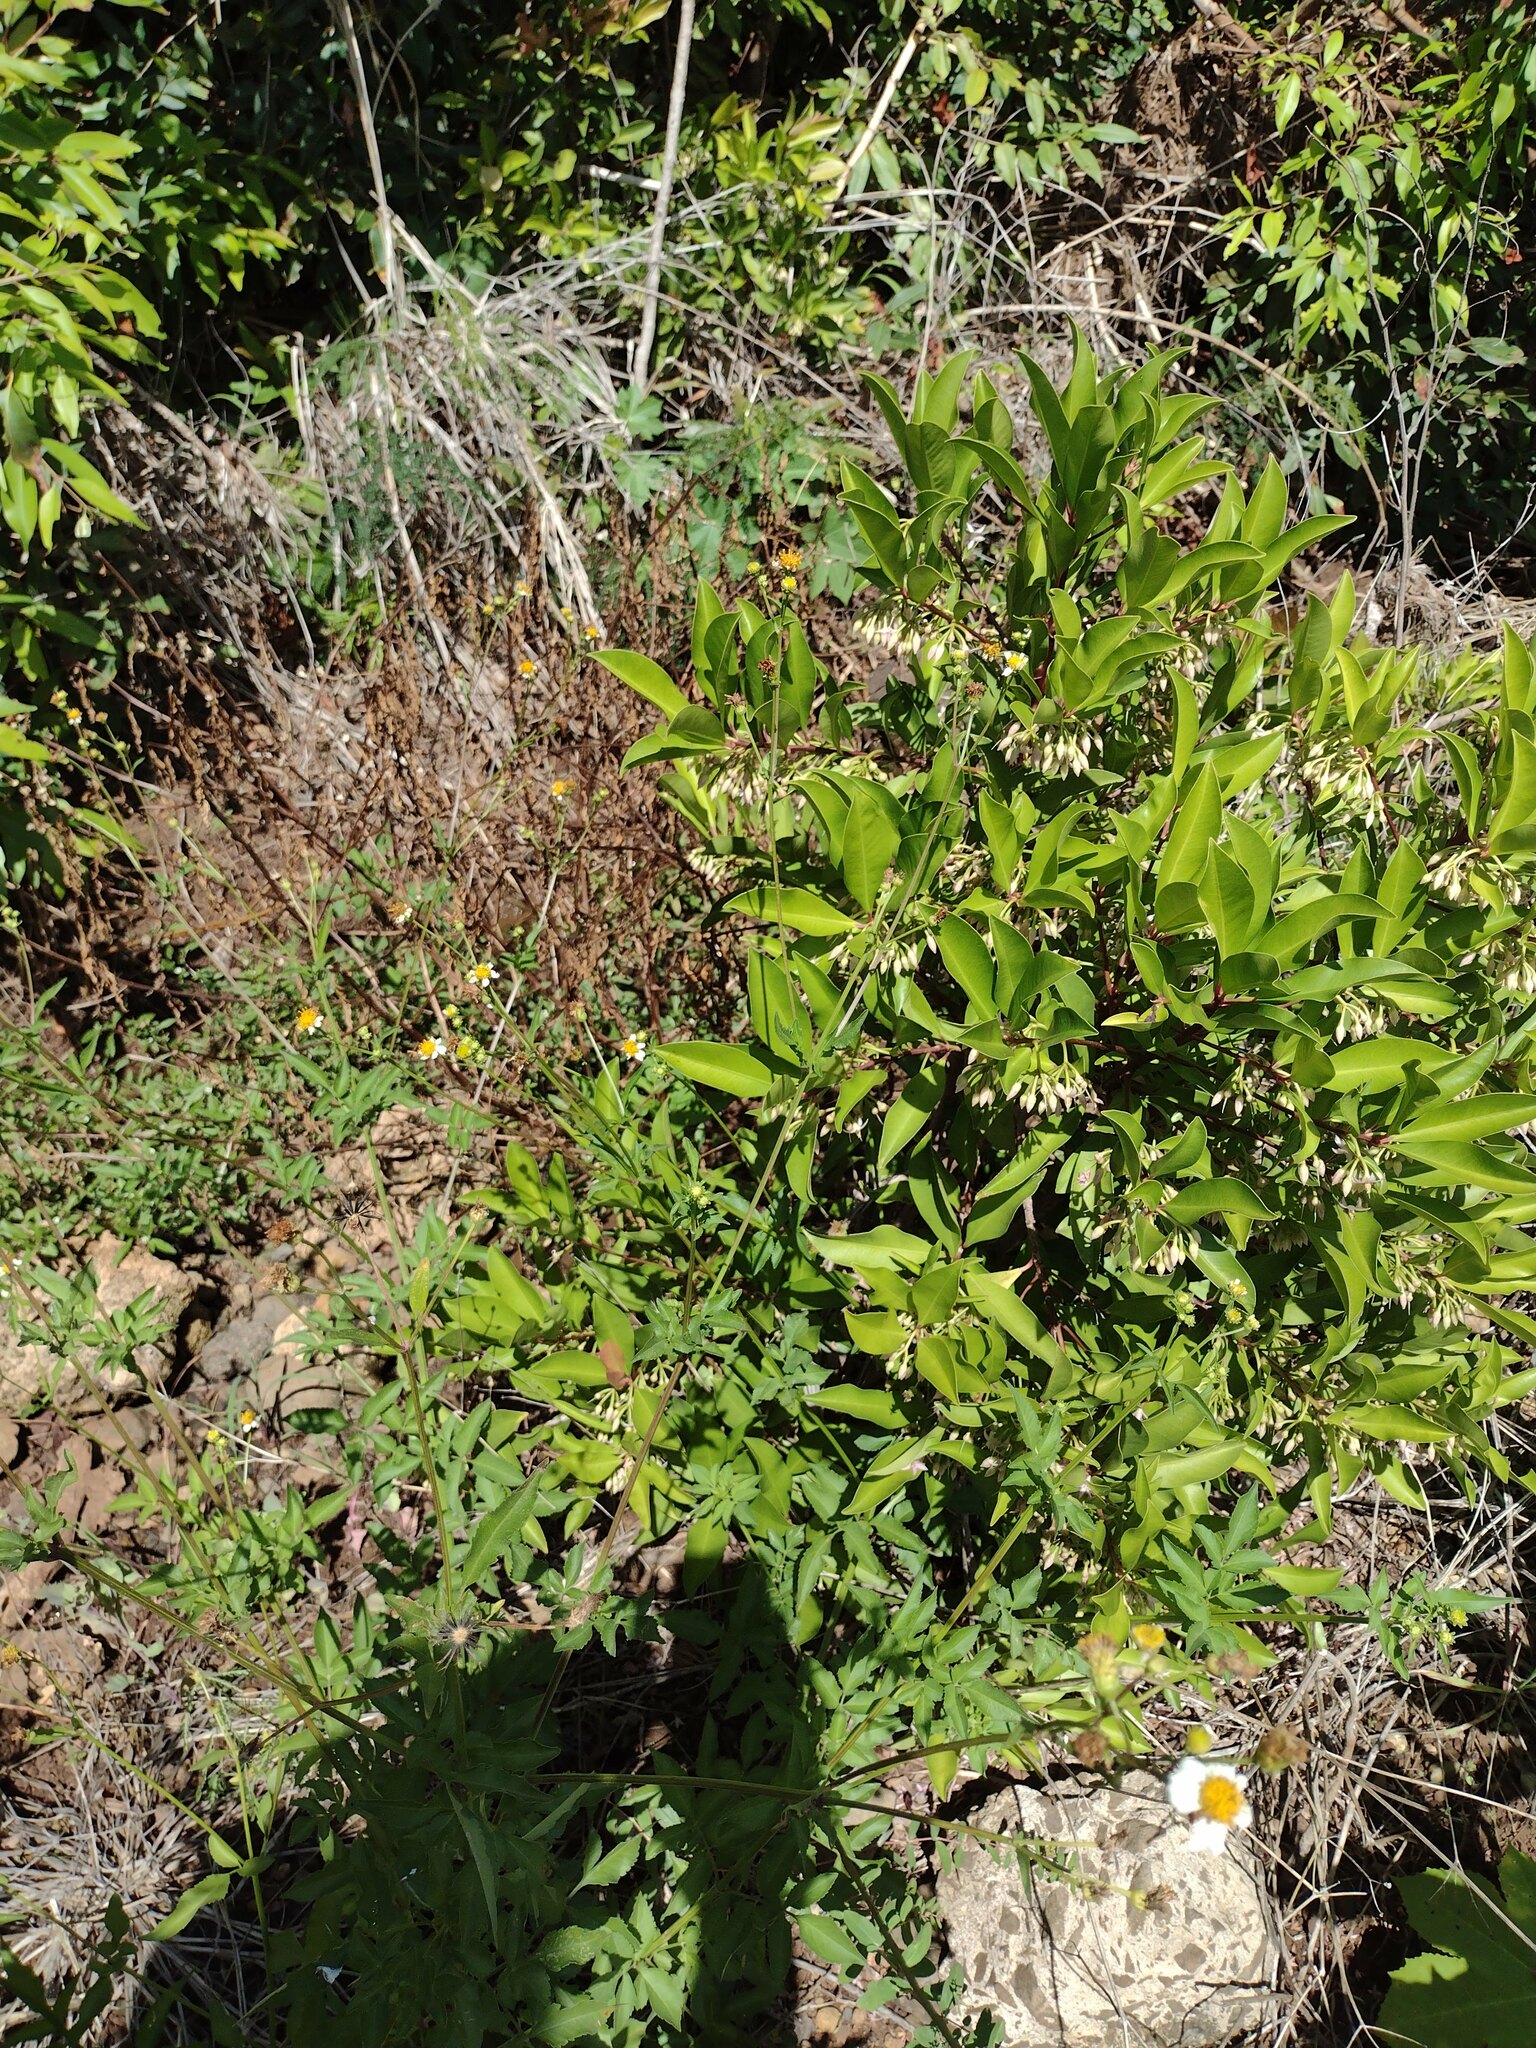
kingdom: Plantae
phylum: Tracheophyta
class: Magnoliopsida
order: Ericales
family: Primulaceae
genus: Ardisia
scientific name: Ardisia elliptica
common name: Shoebutton
